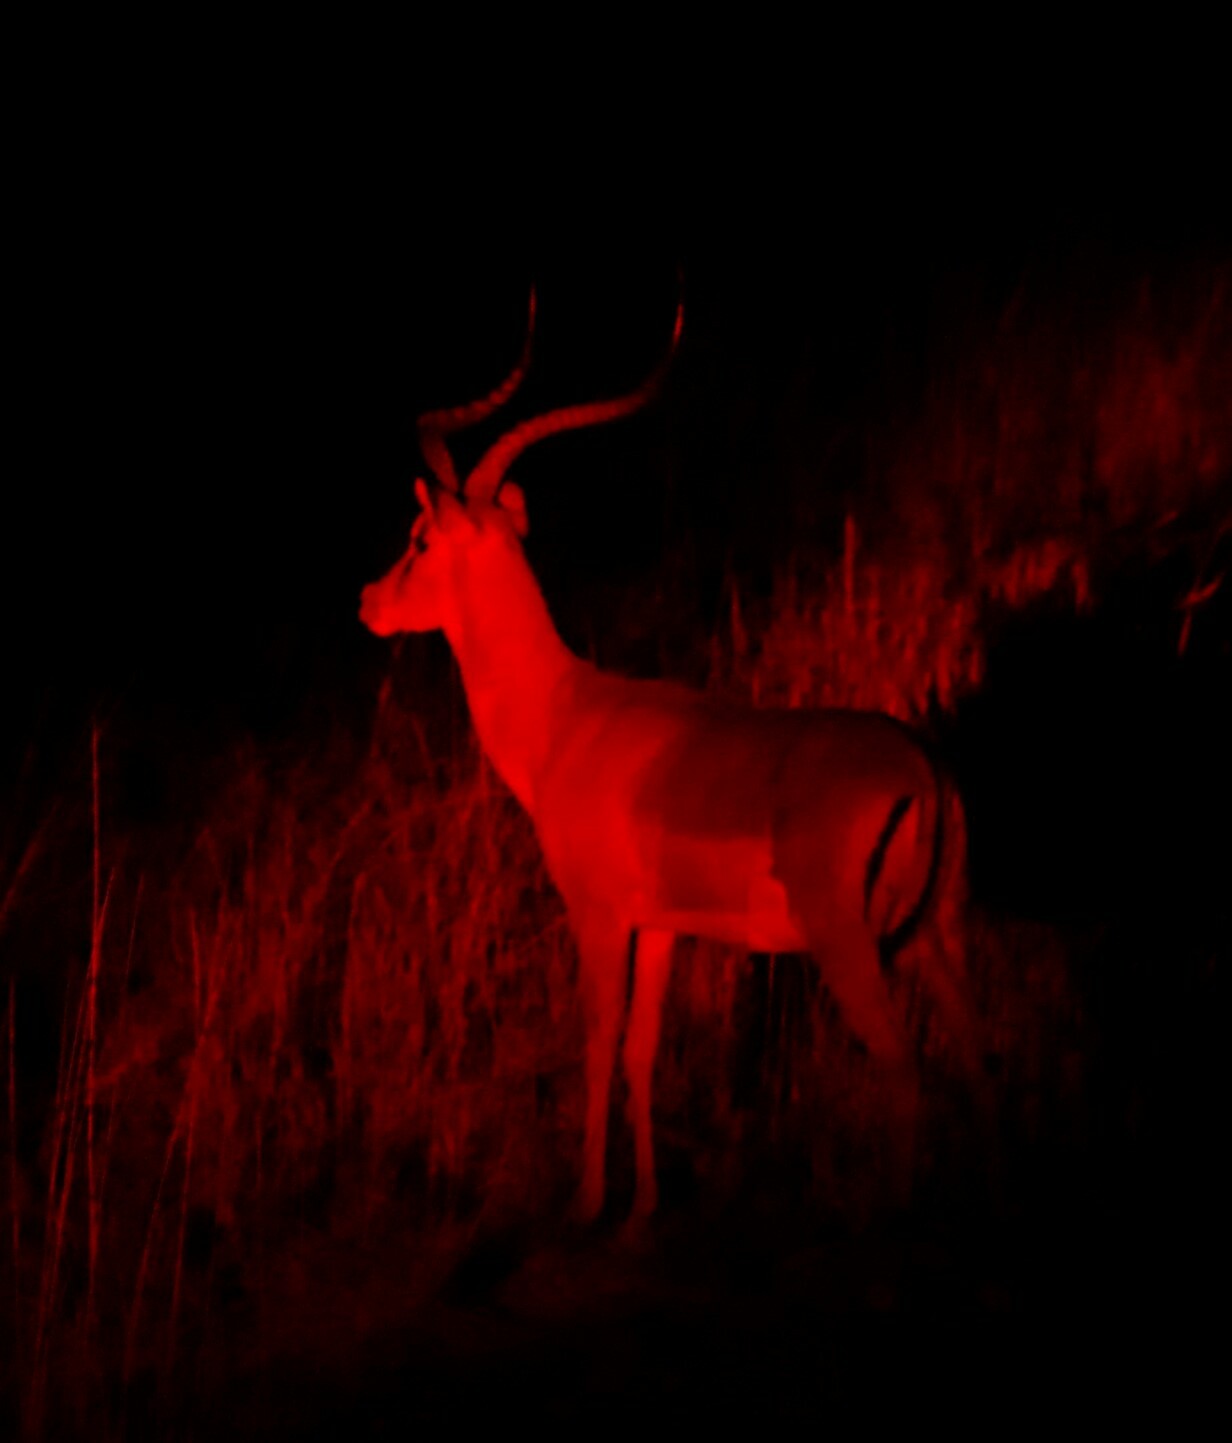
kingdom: Animalia
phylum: Chordata
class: Mammalia
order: Artiodactyla
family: Bovidae
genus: Aepyceros
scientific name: Aepyceros melampus
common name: Impala
